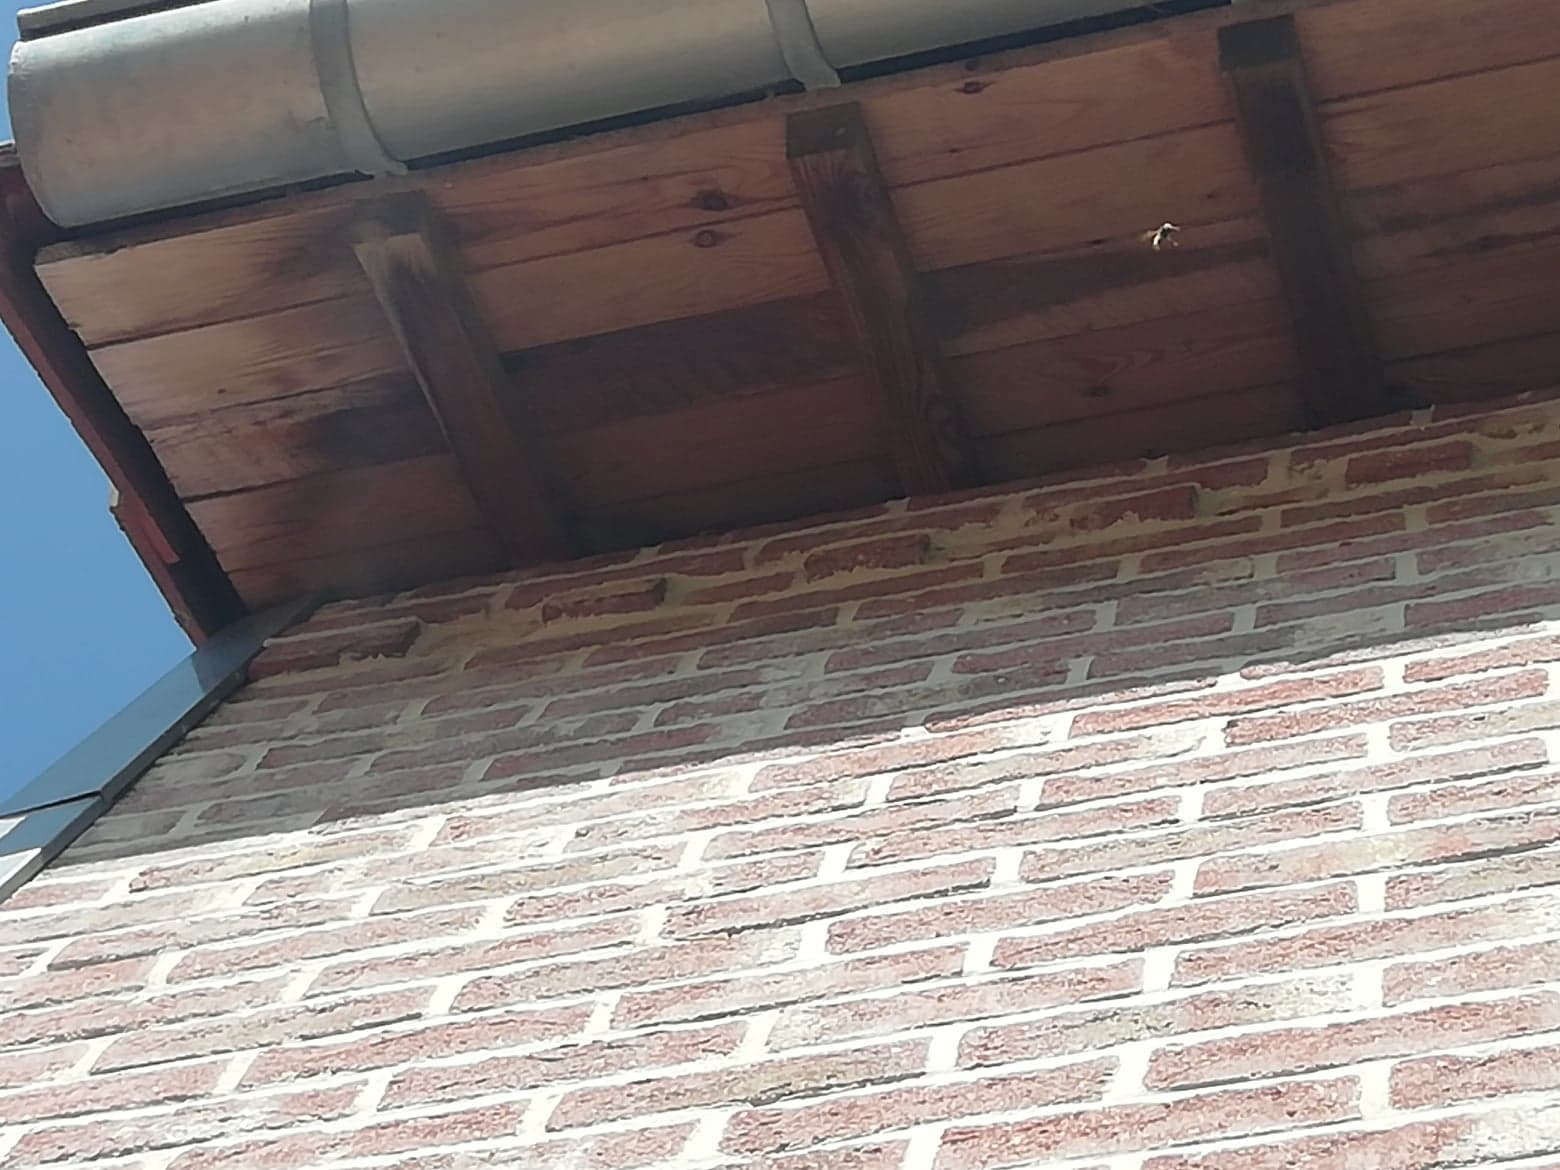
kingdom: Animalia
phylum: Arthropoda
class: Insecta
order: Hymenoptera
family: Vespidae
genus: Vespa
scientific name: Vespa crabro
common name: Hornet
